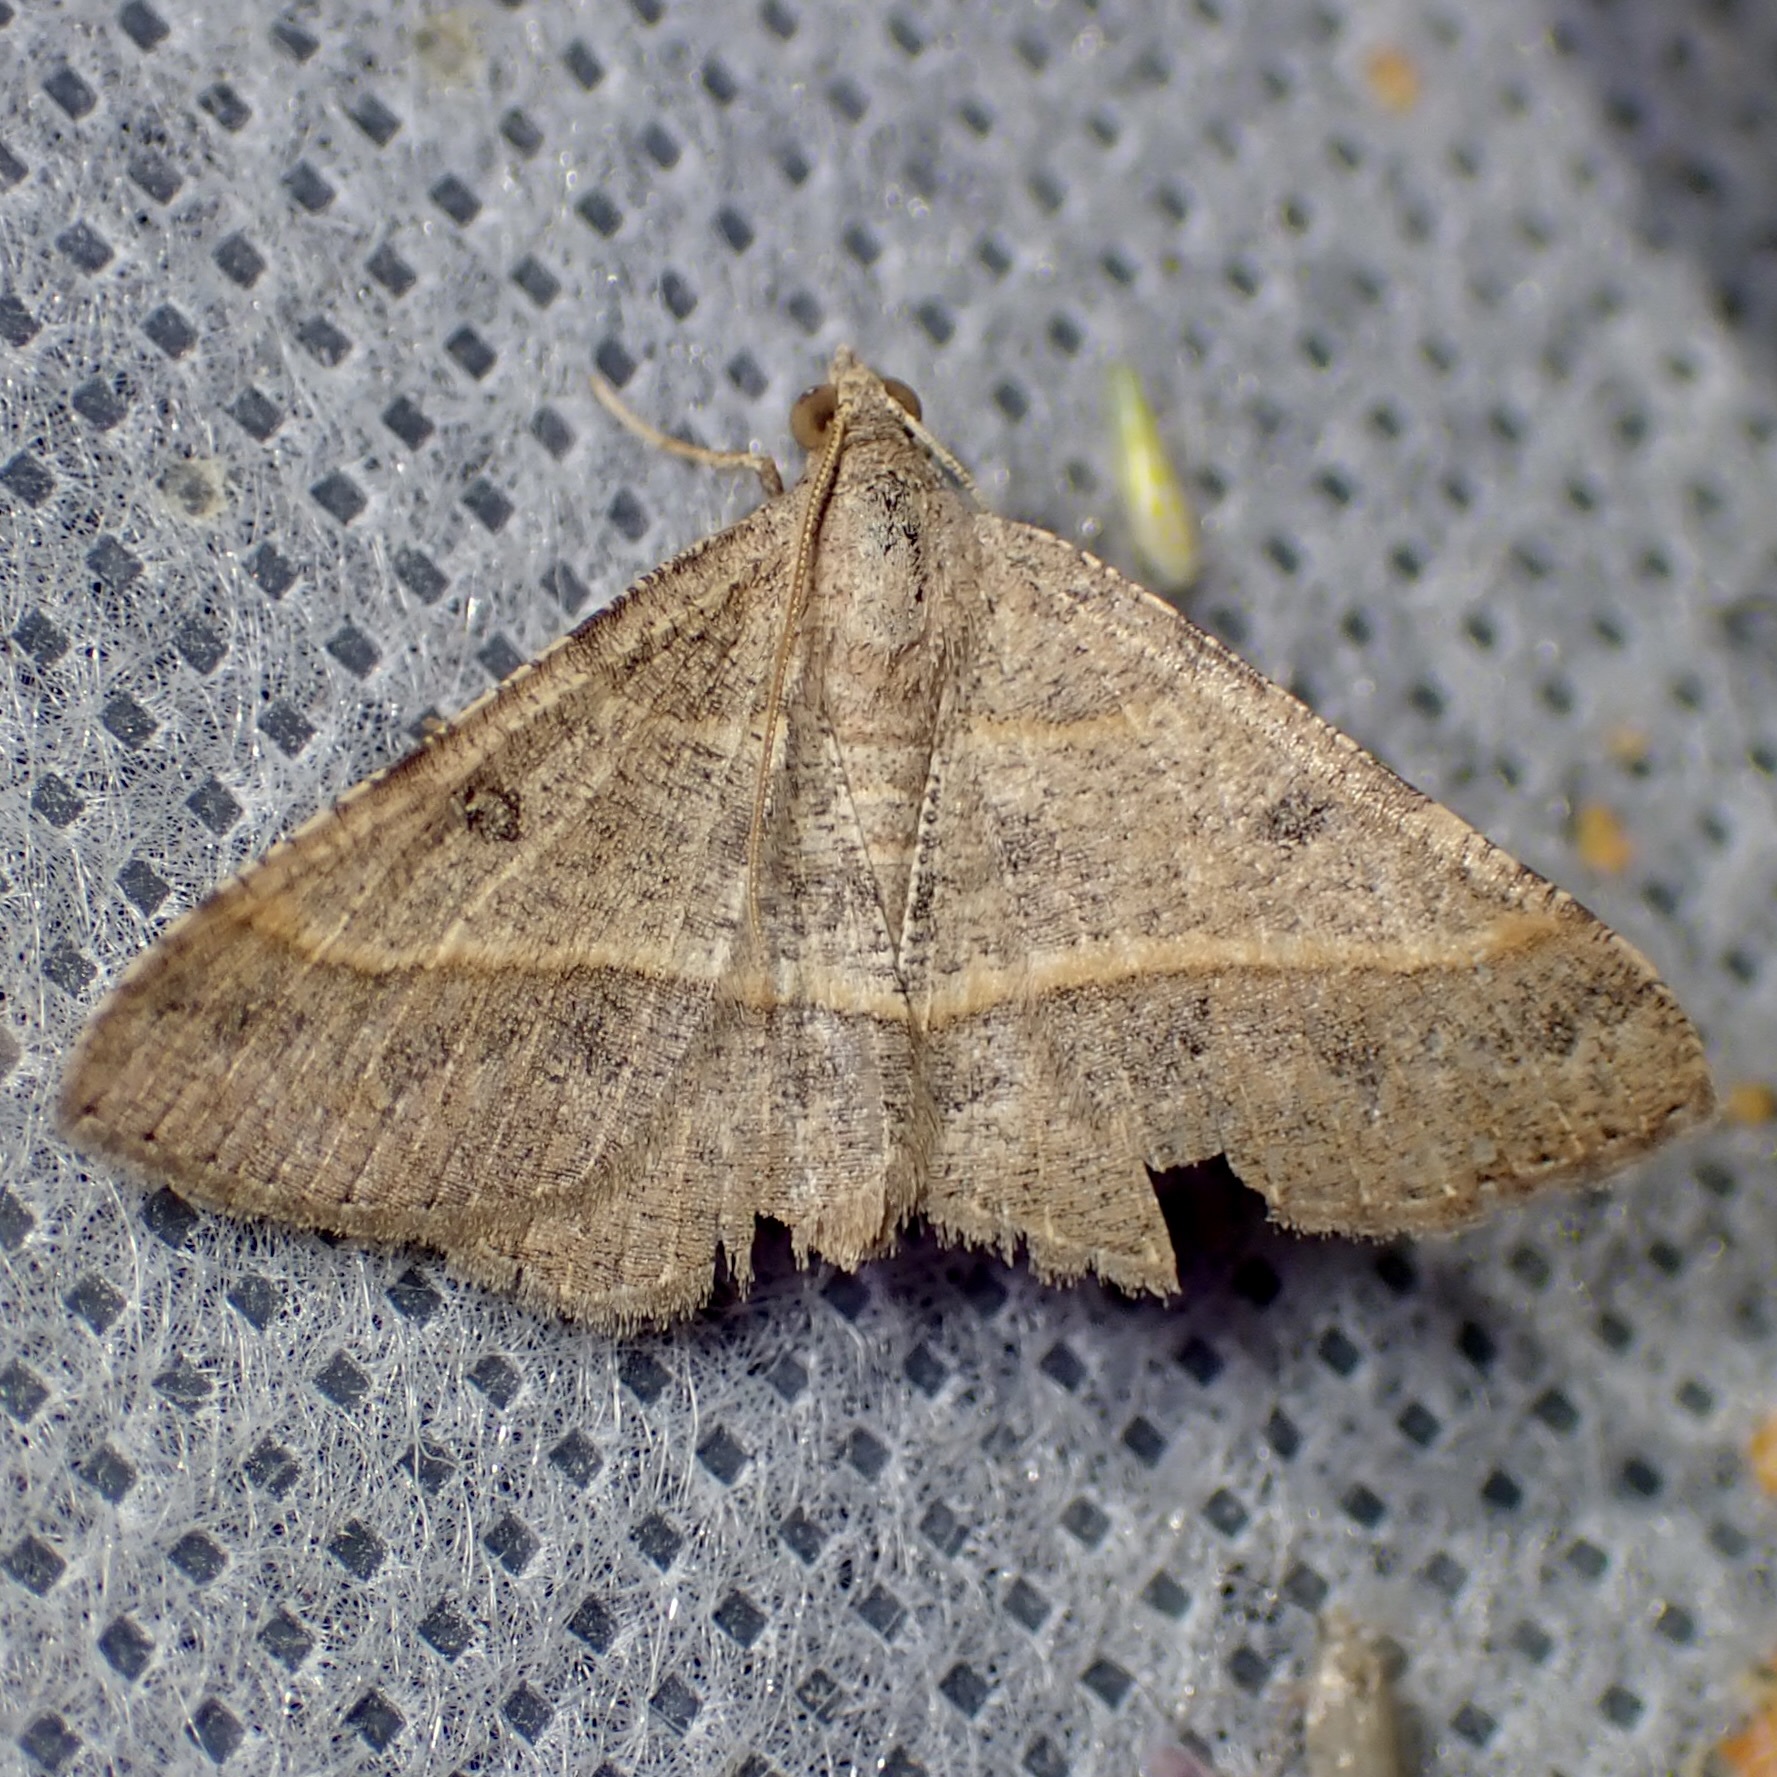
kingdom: Animalia
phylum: Arthropoda
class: Insecta
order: Lepidoptera
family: Geometridae
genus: Digrammia
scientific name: Digrammia irrorata
